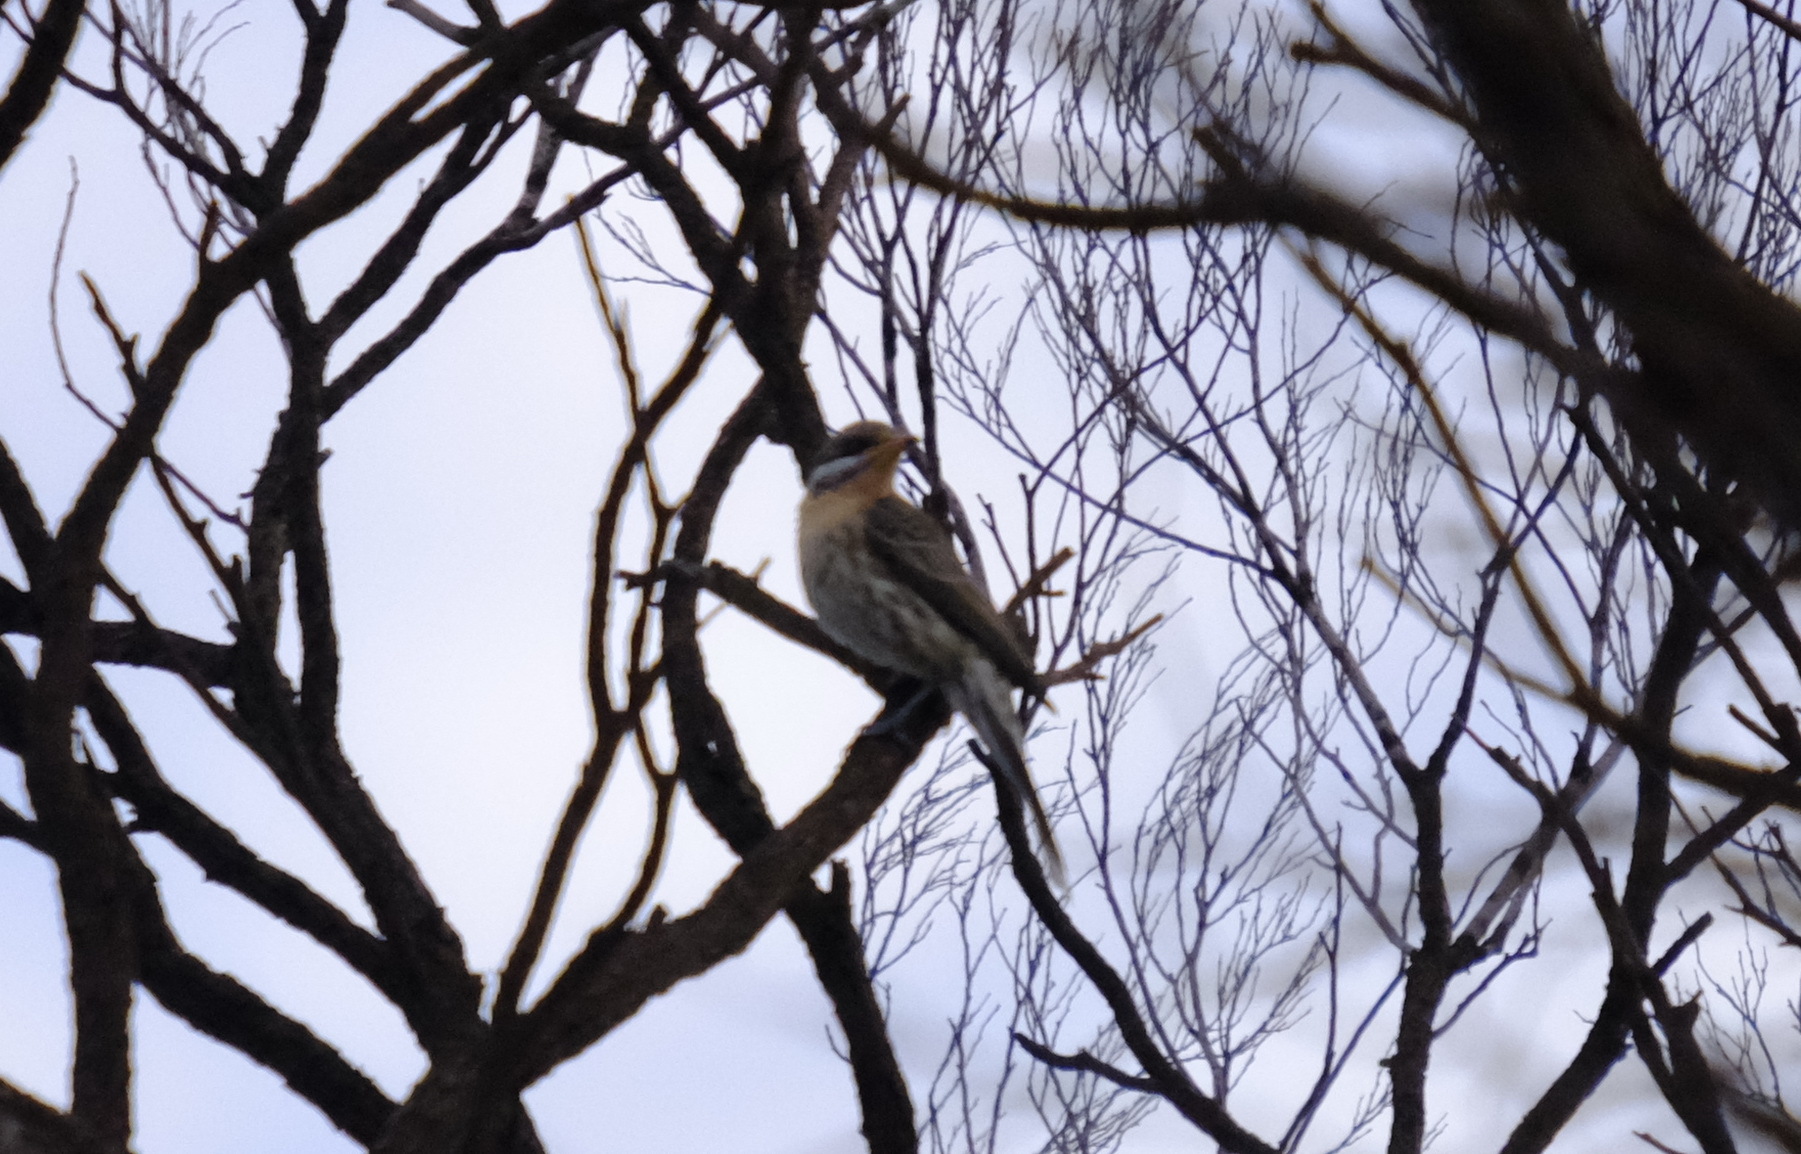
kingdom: Animalia
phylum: Chordata
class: Aves
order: Passeriformes
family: Meliphagidae
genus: Acanthagenys
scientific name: Acanthagenys rufogularis
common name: Spiny-cheeked honeyeater
